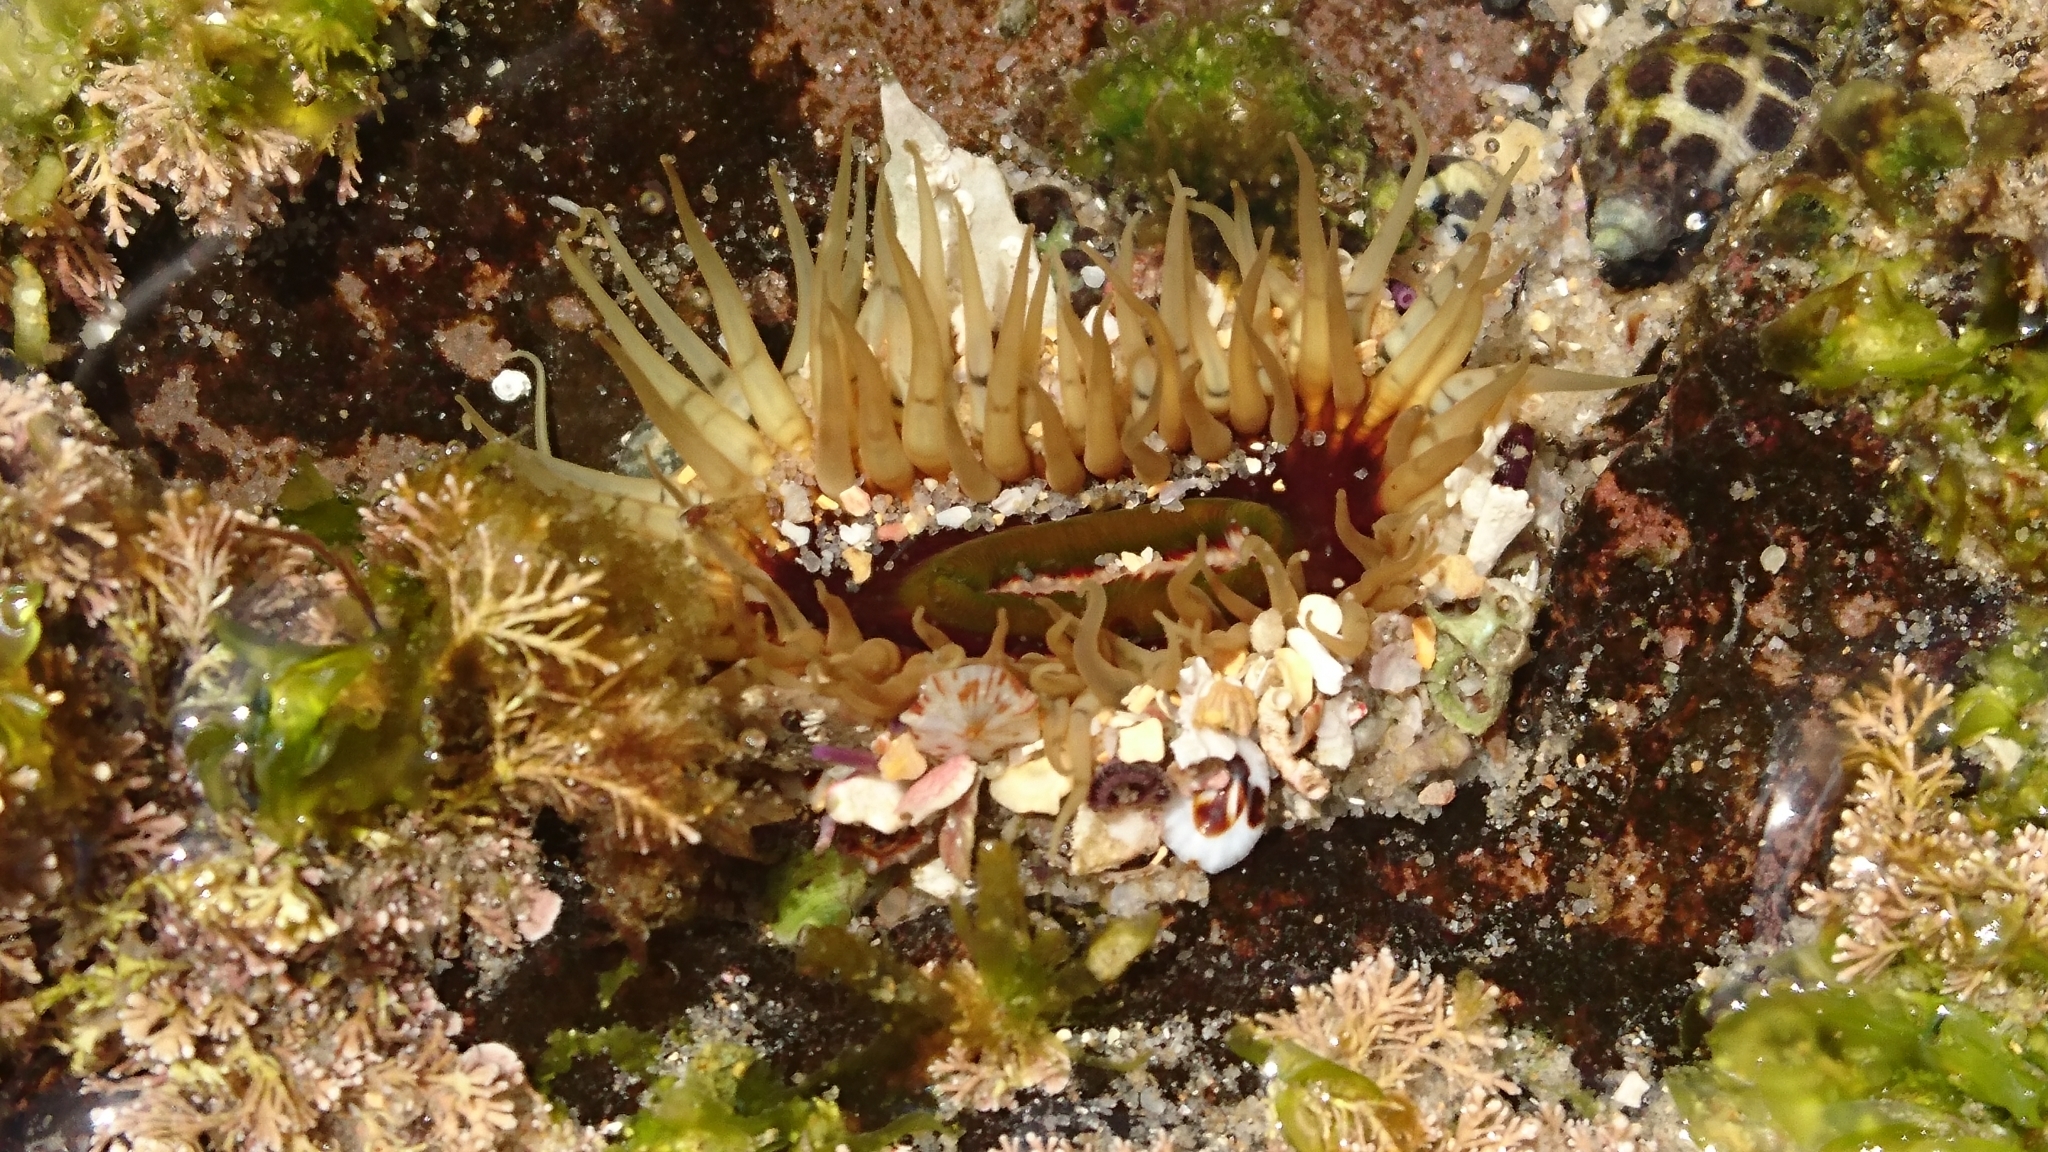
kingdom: Animalia
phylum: Cnidaria
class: Anthozoa
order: Actiniaria
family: Actiniidae
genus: Oulactis
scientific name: Oulactis muscosa
